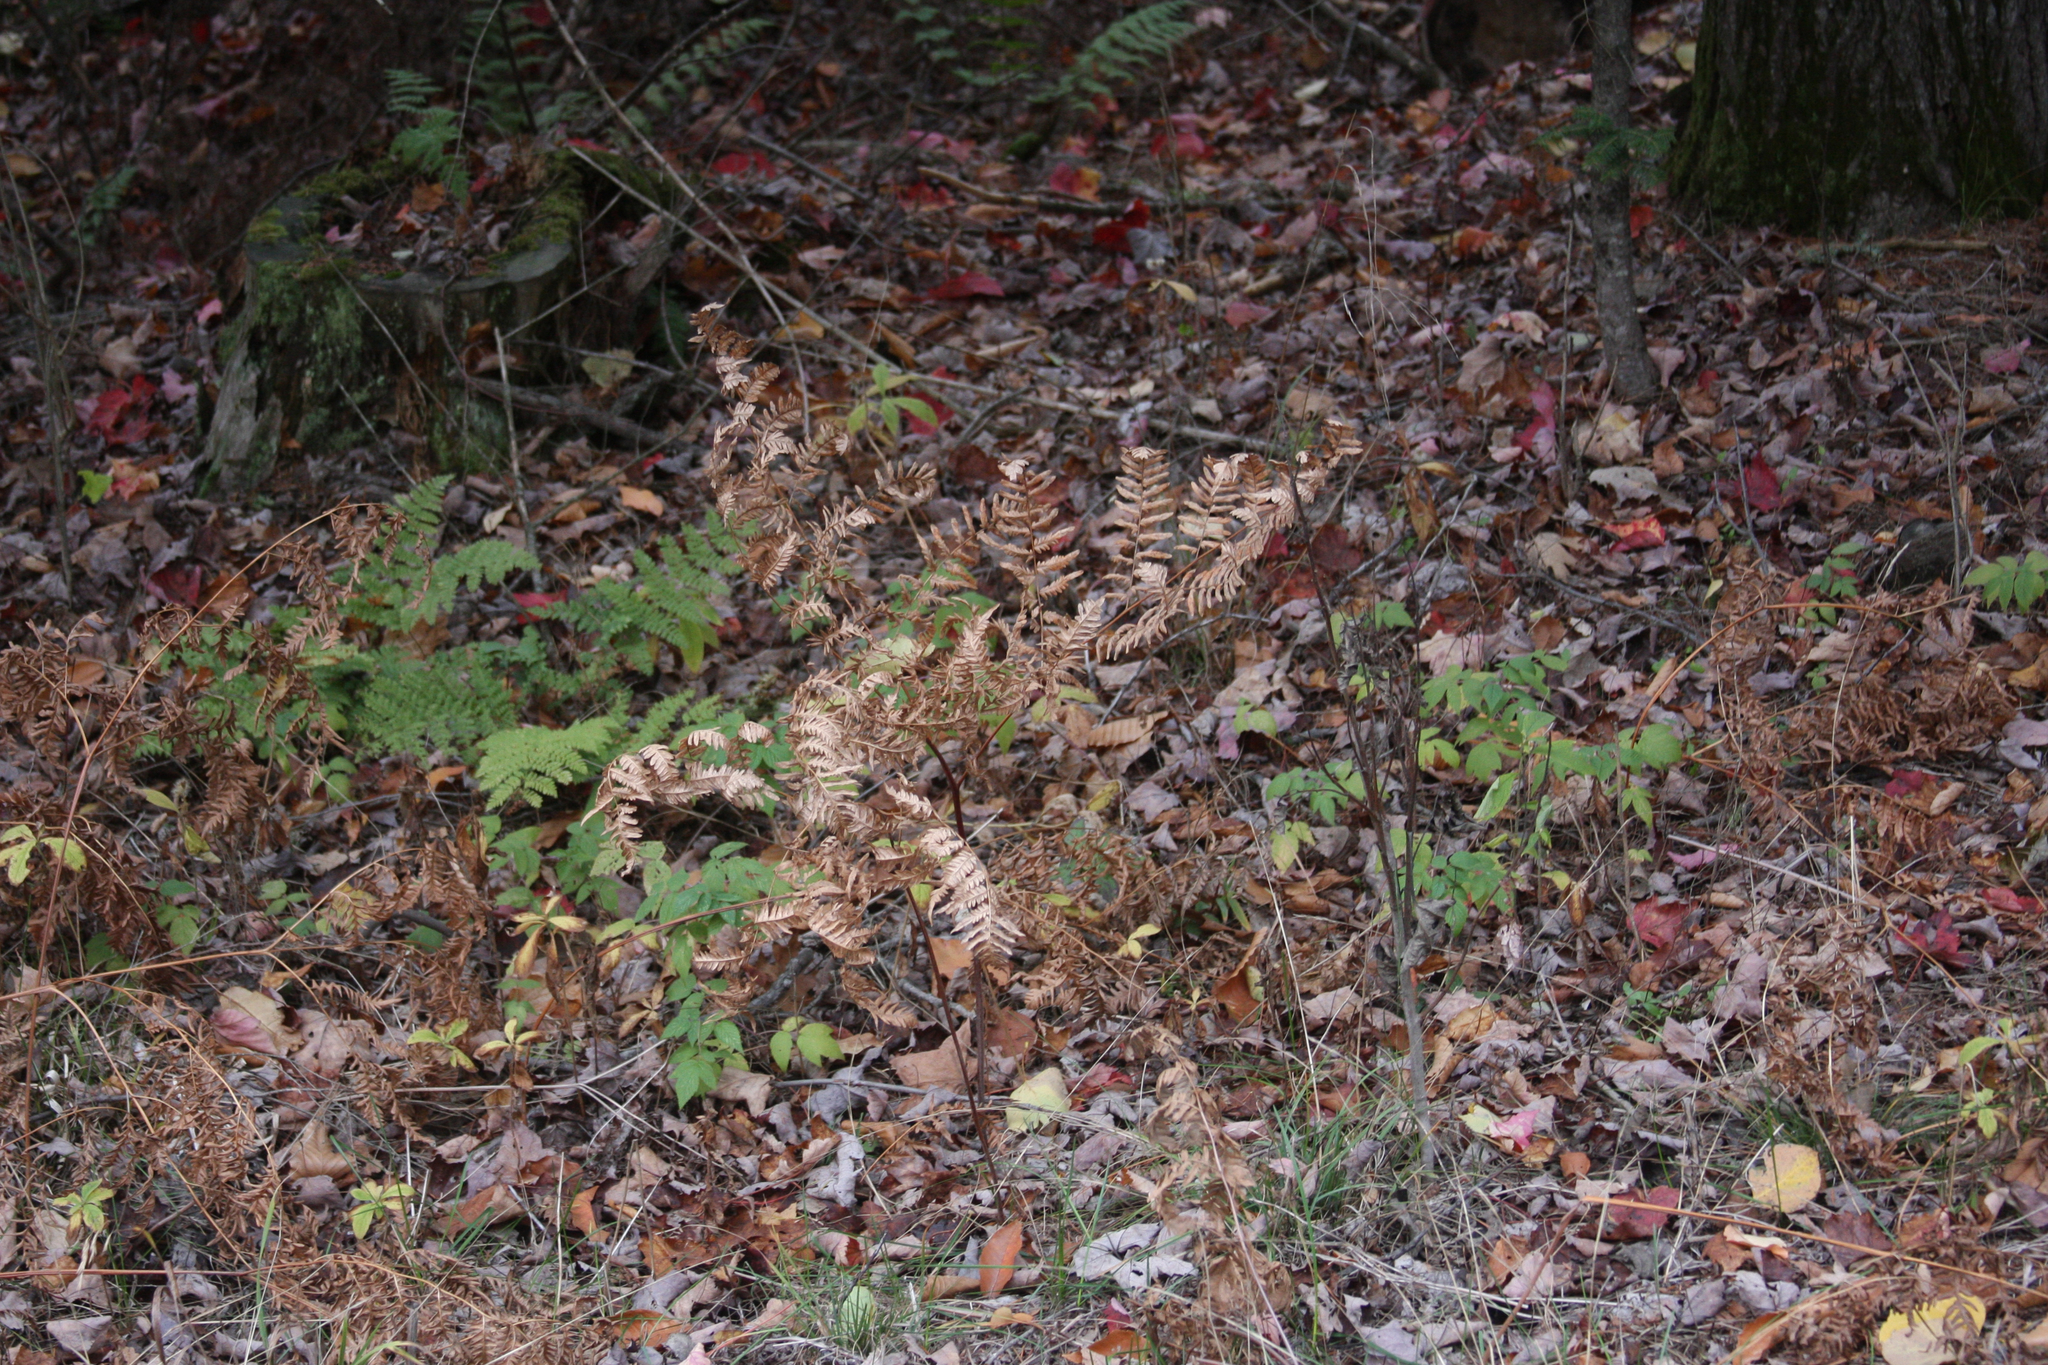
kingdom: Plantae
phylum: Tracheophyta
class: Polypodiopsida
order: Polypodiales
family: Dennstaedtiaceae
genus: Pteridium
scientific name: Pteridium aquilinum
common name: Bracken
